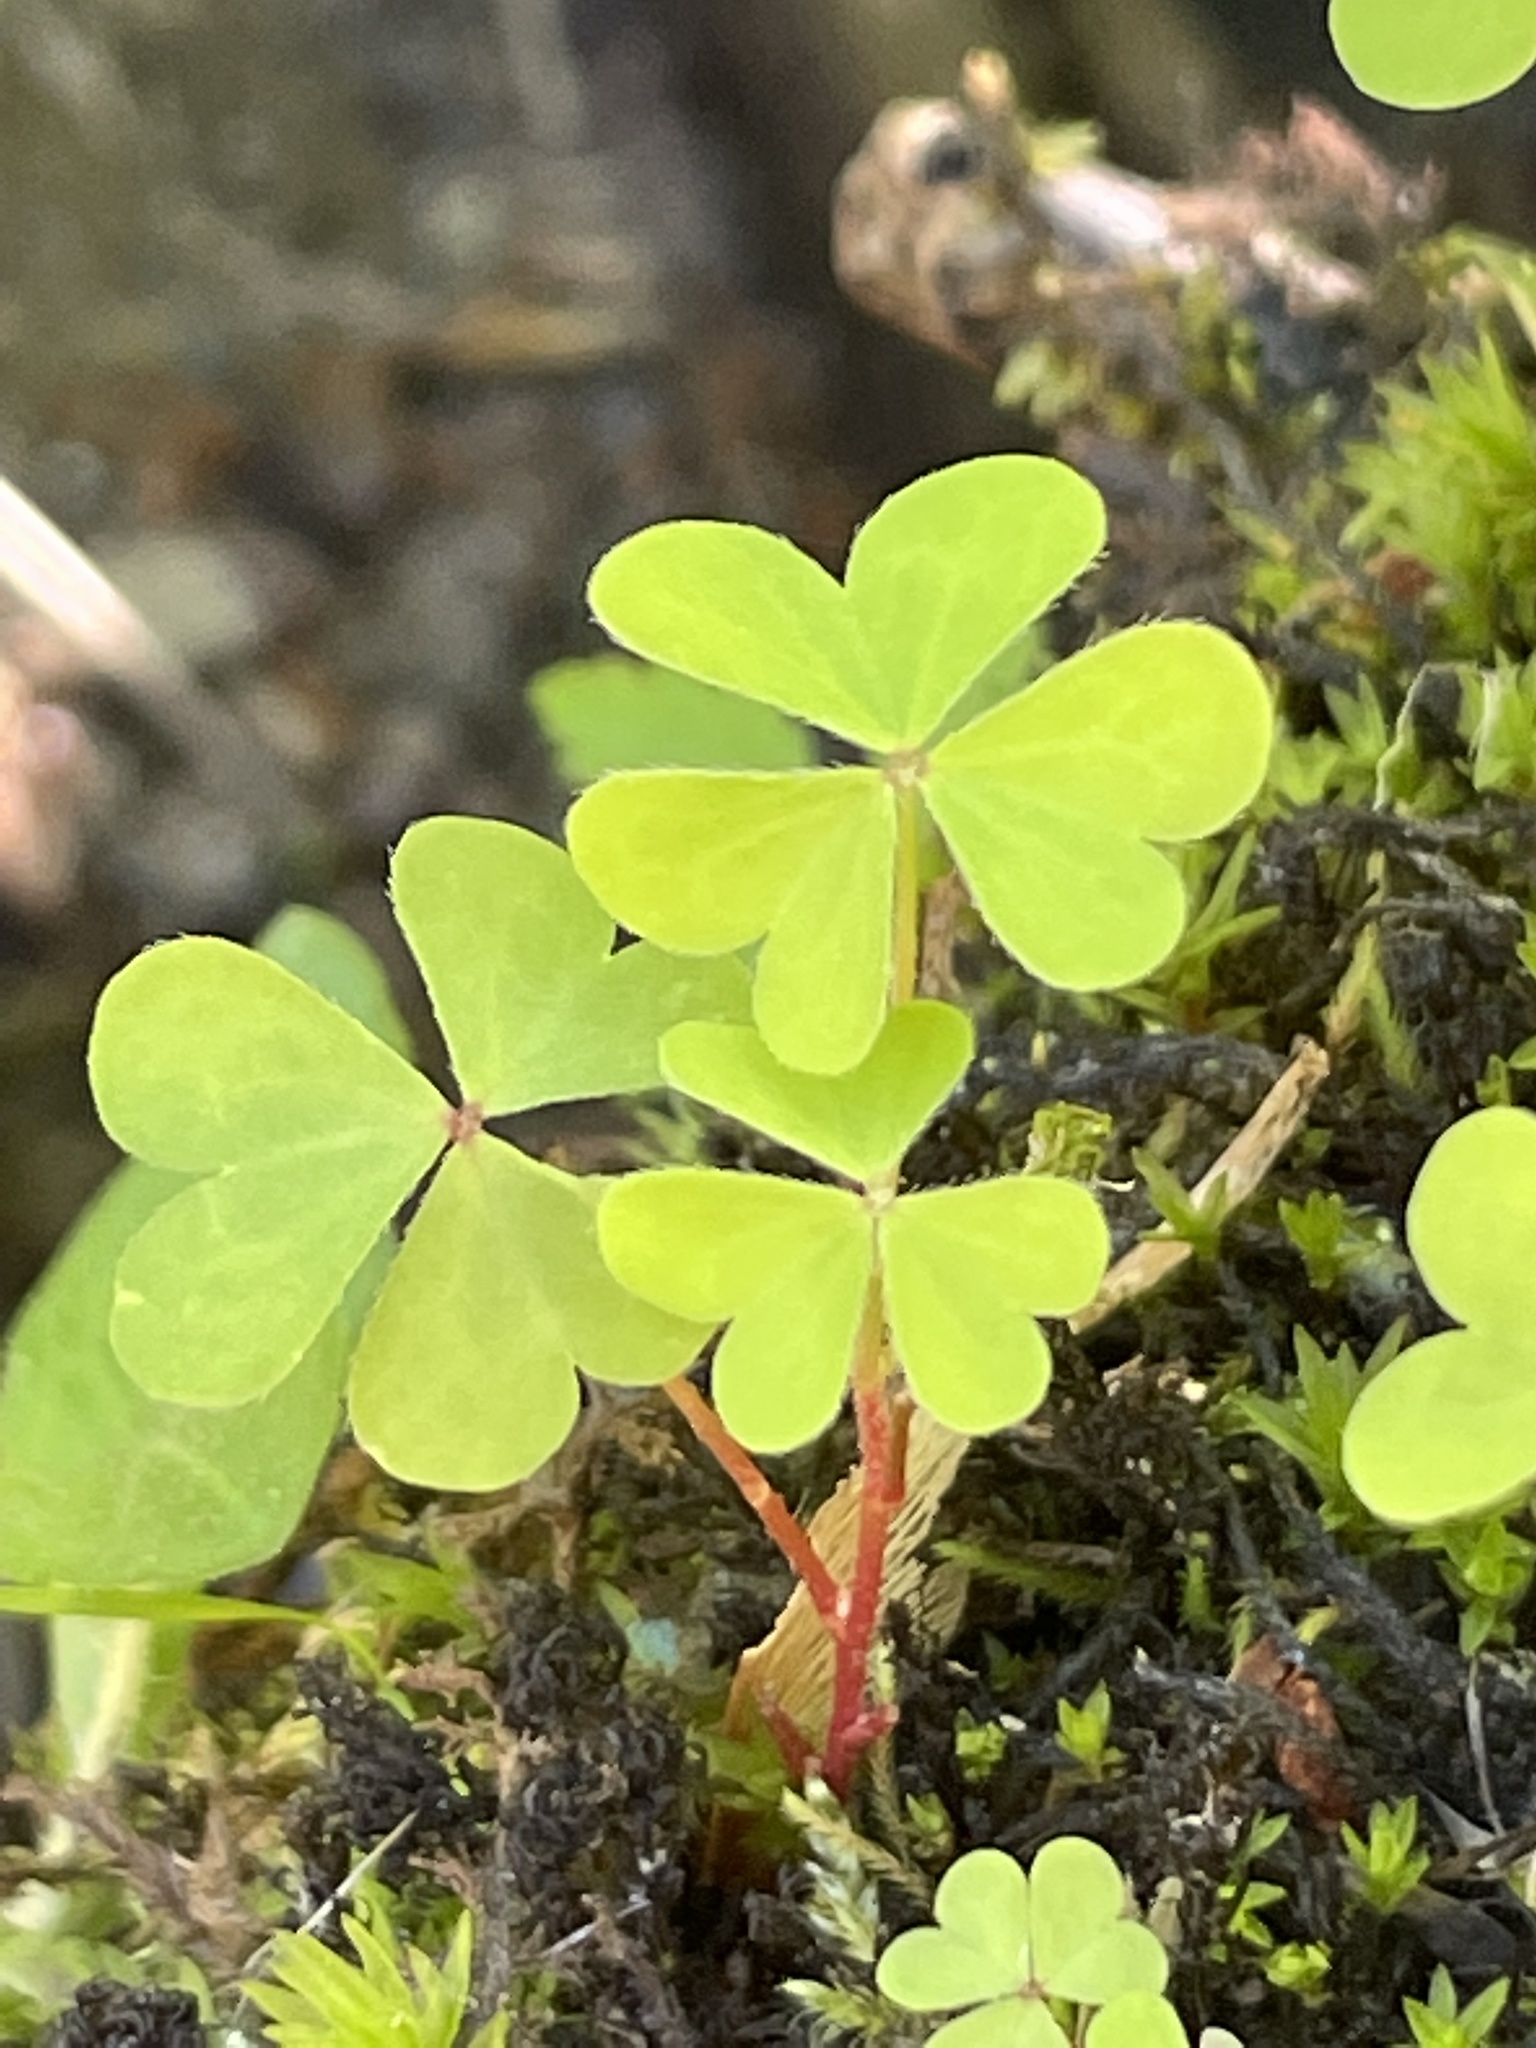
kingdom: Plantae
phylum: Tracheophyta
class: Magnoliopsida
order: Oxalidales
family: Oxalidaceae
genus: Oxalis
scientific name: Oxalis stricta
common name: Upright yellow-sorrel
